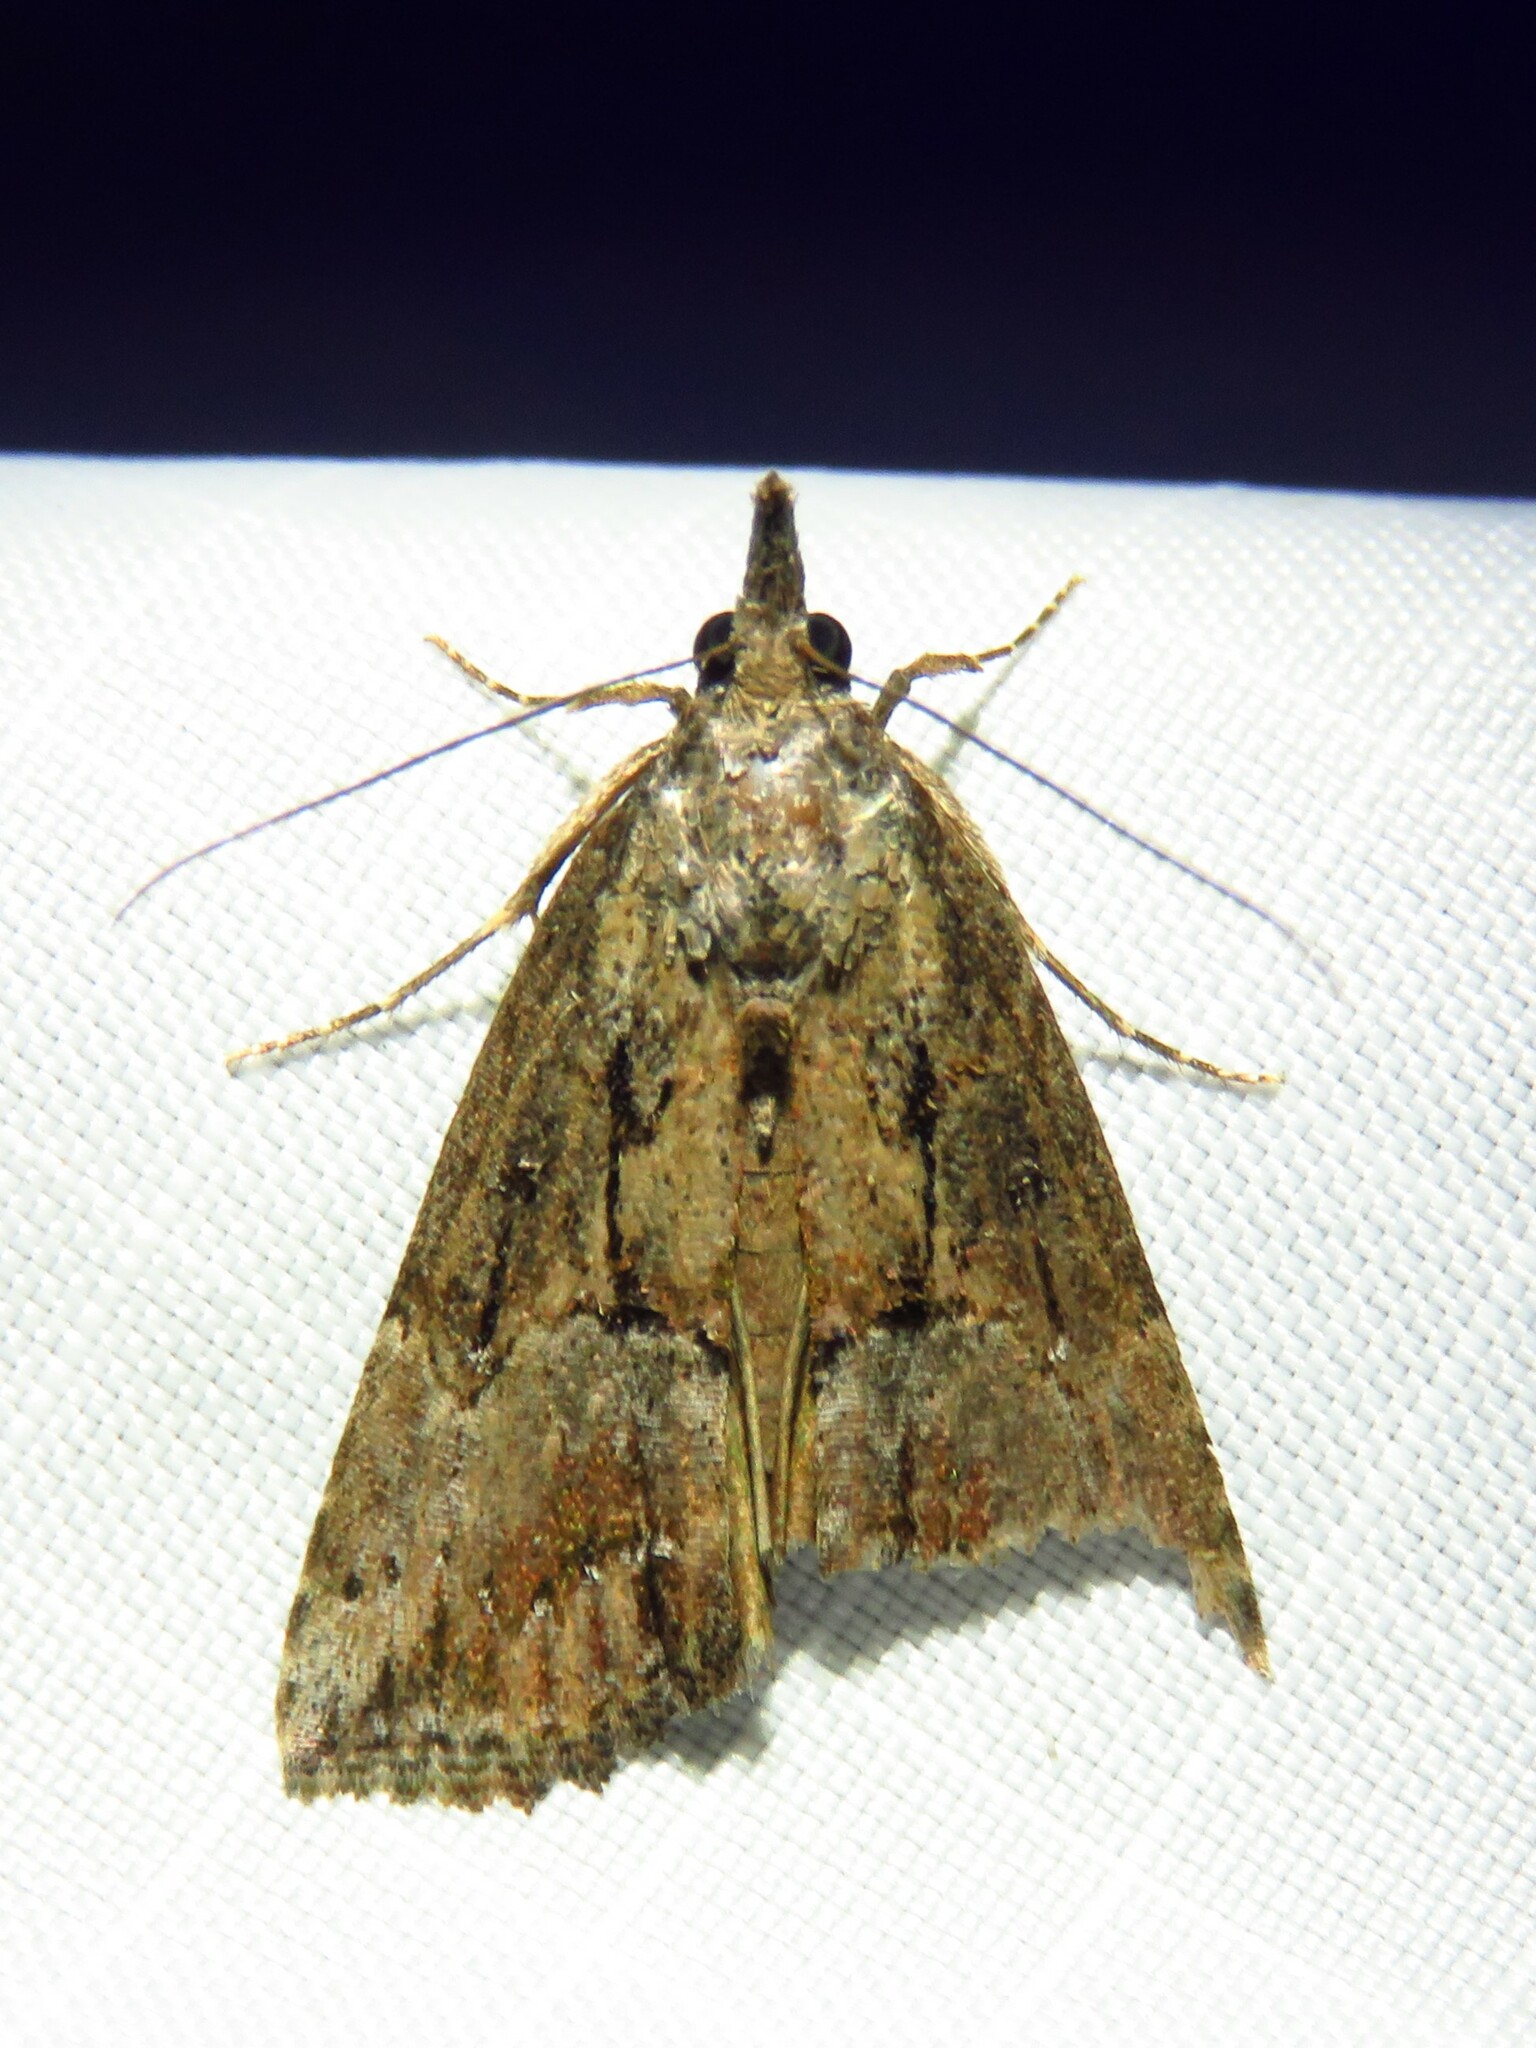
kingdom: Animalia
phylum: Arthropoda
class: Insecta
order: Lepidoptera
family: Erebidae
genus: Hypena
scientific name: Hypena scabra
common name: Green cloverworm
